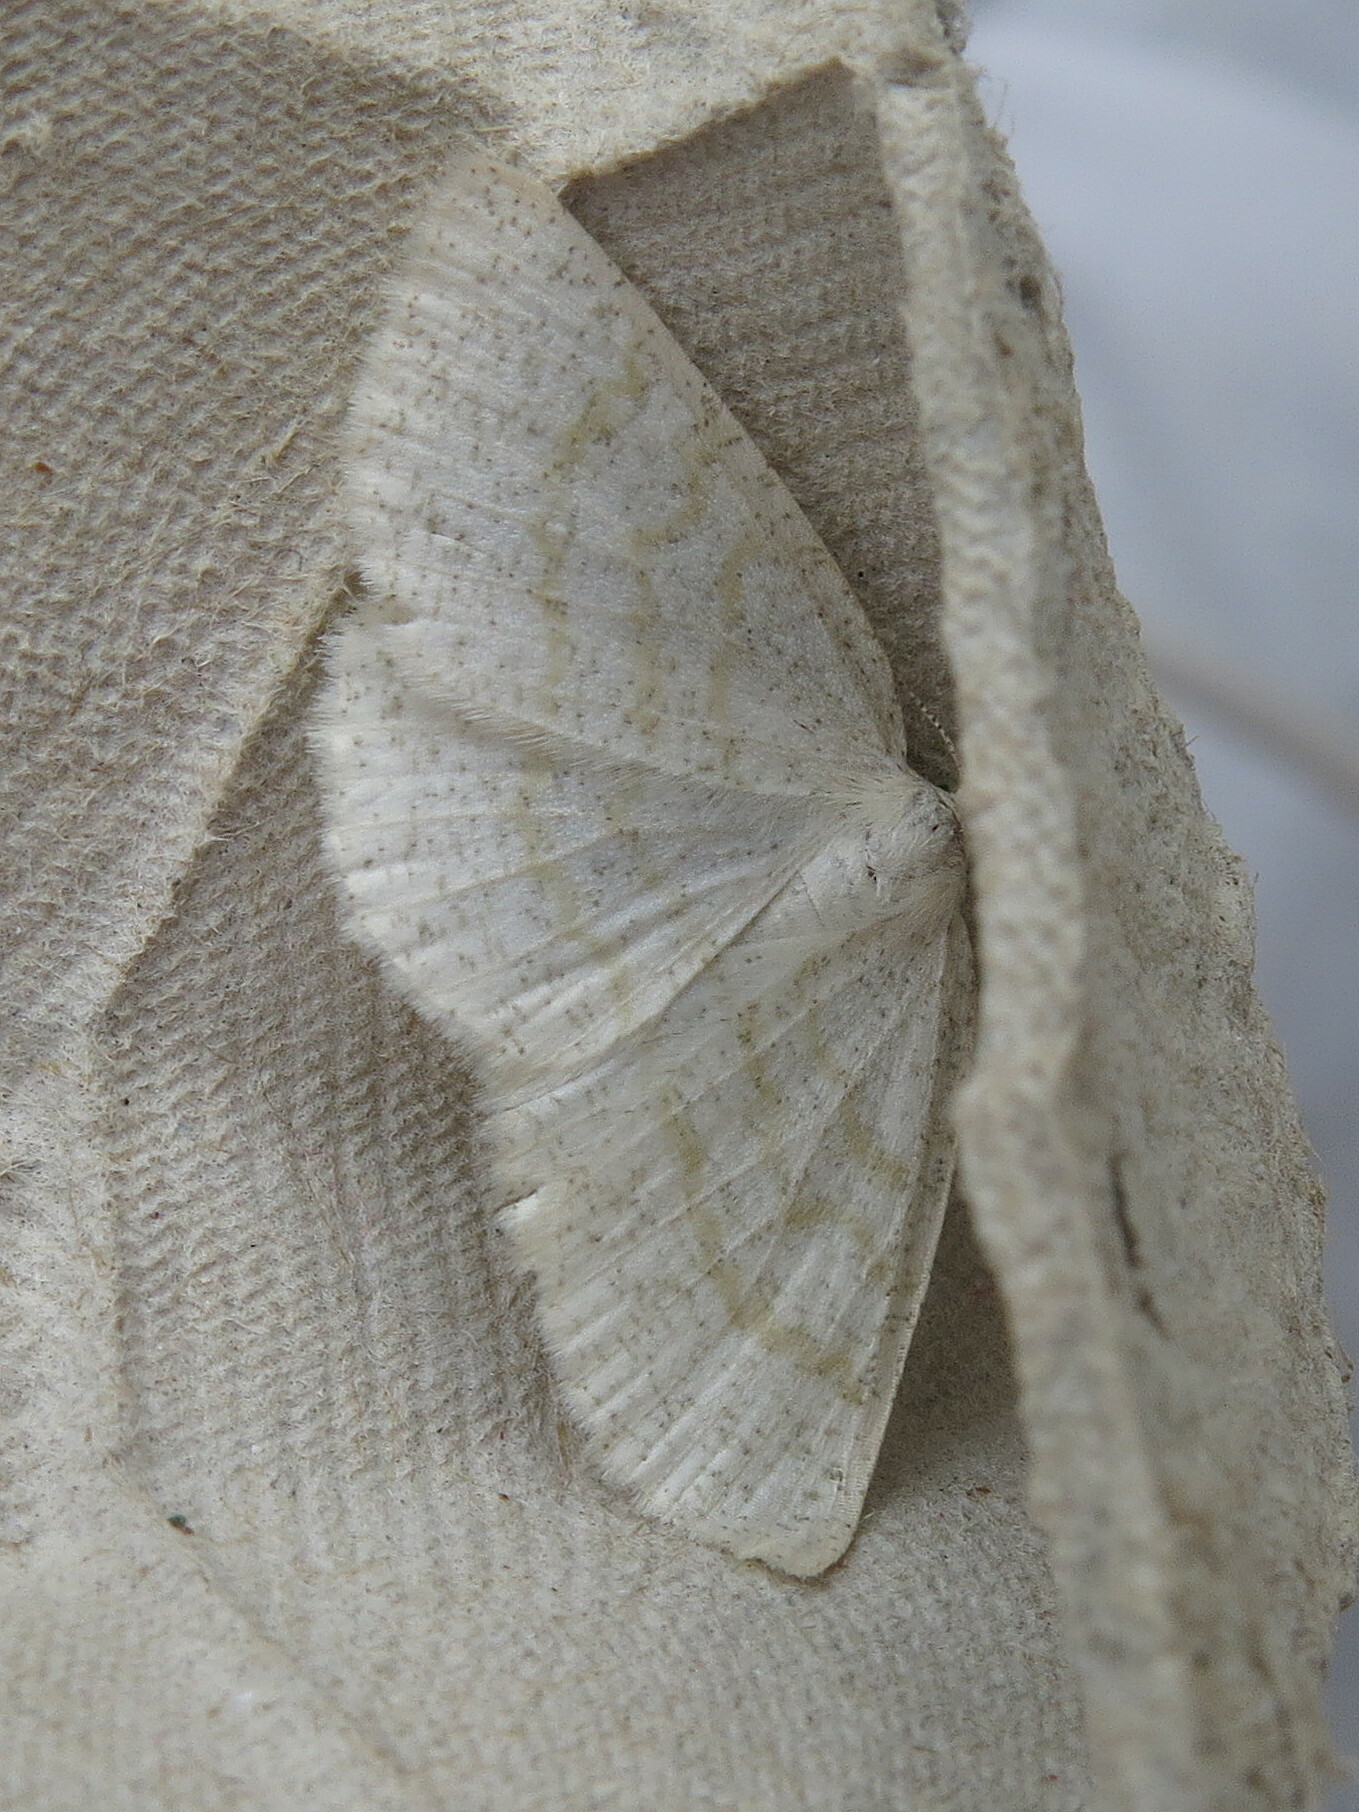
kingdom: Animalia
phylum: Arthropoda
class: Insecta
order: Lepidoptera
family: Geometridae
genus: Cabera
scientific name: Cabera exanthemata
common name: Common wave
